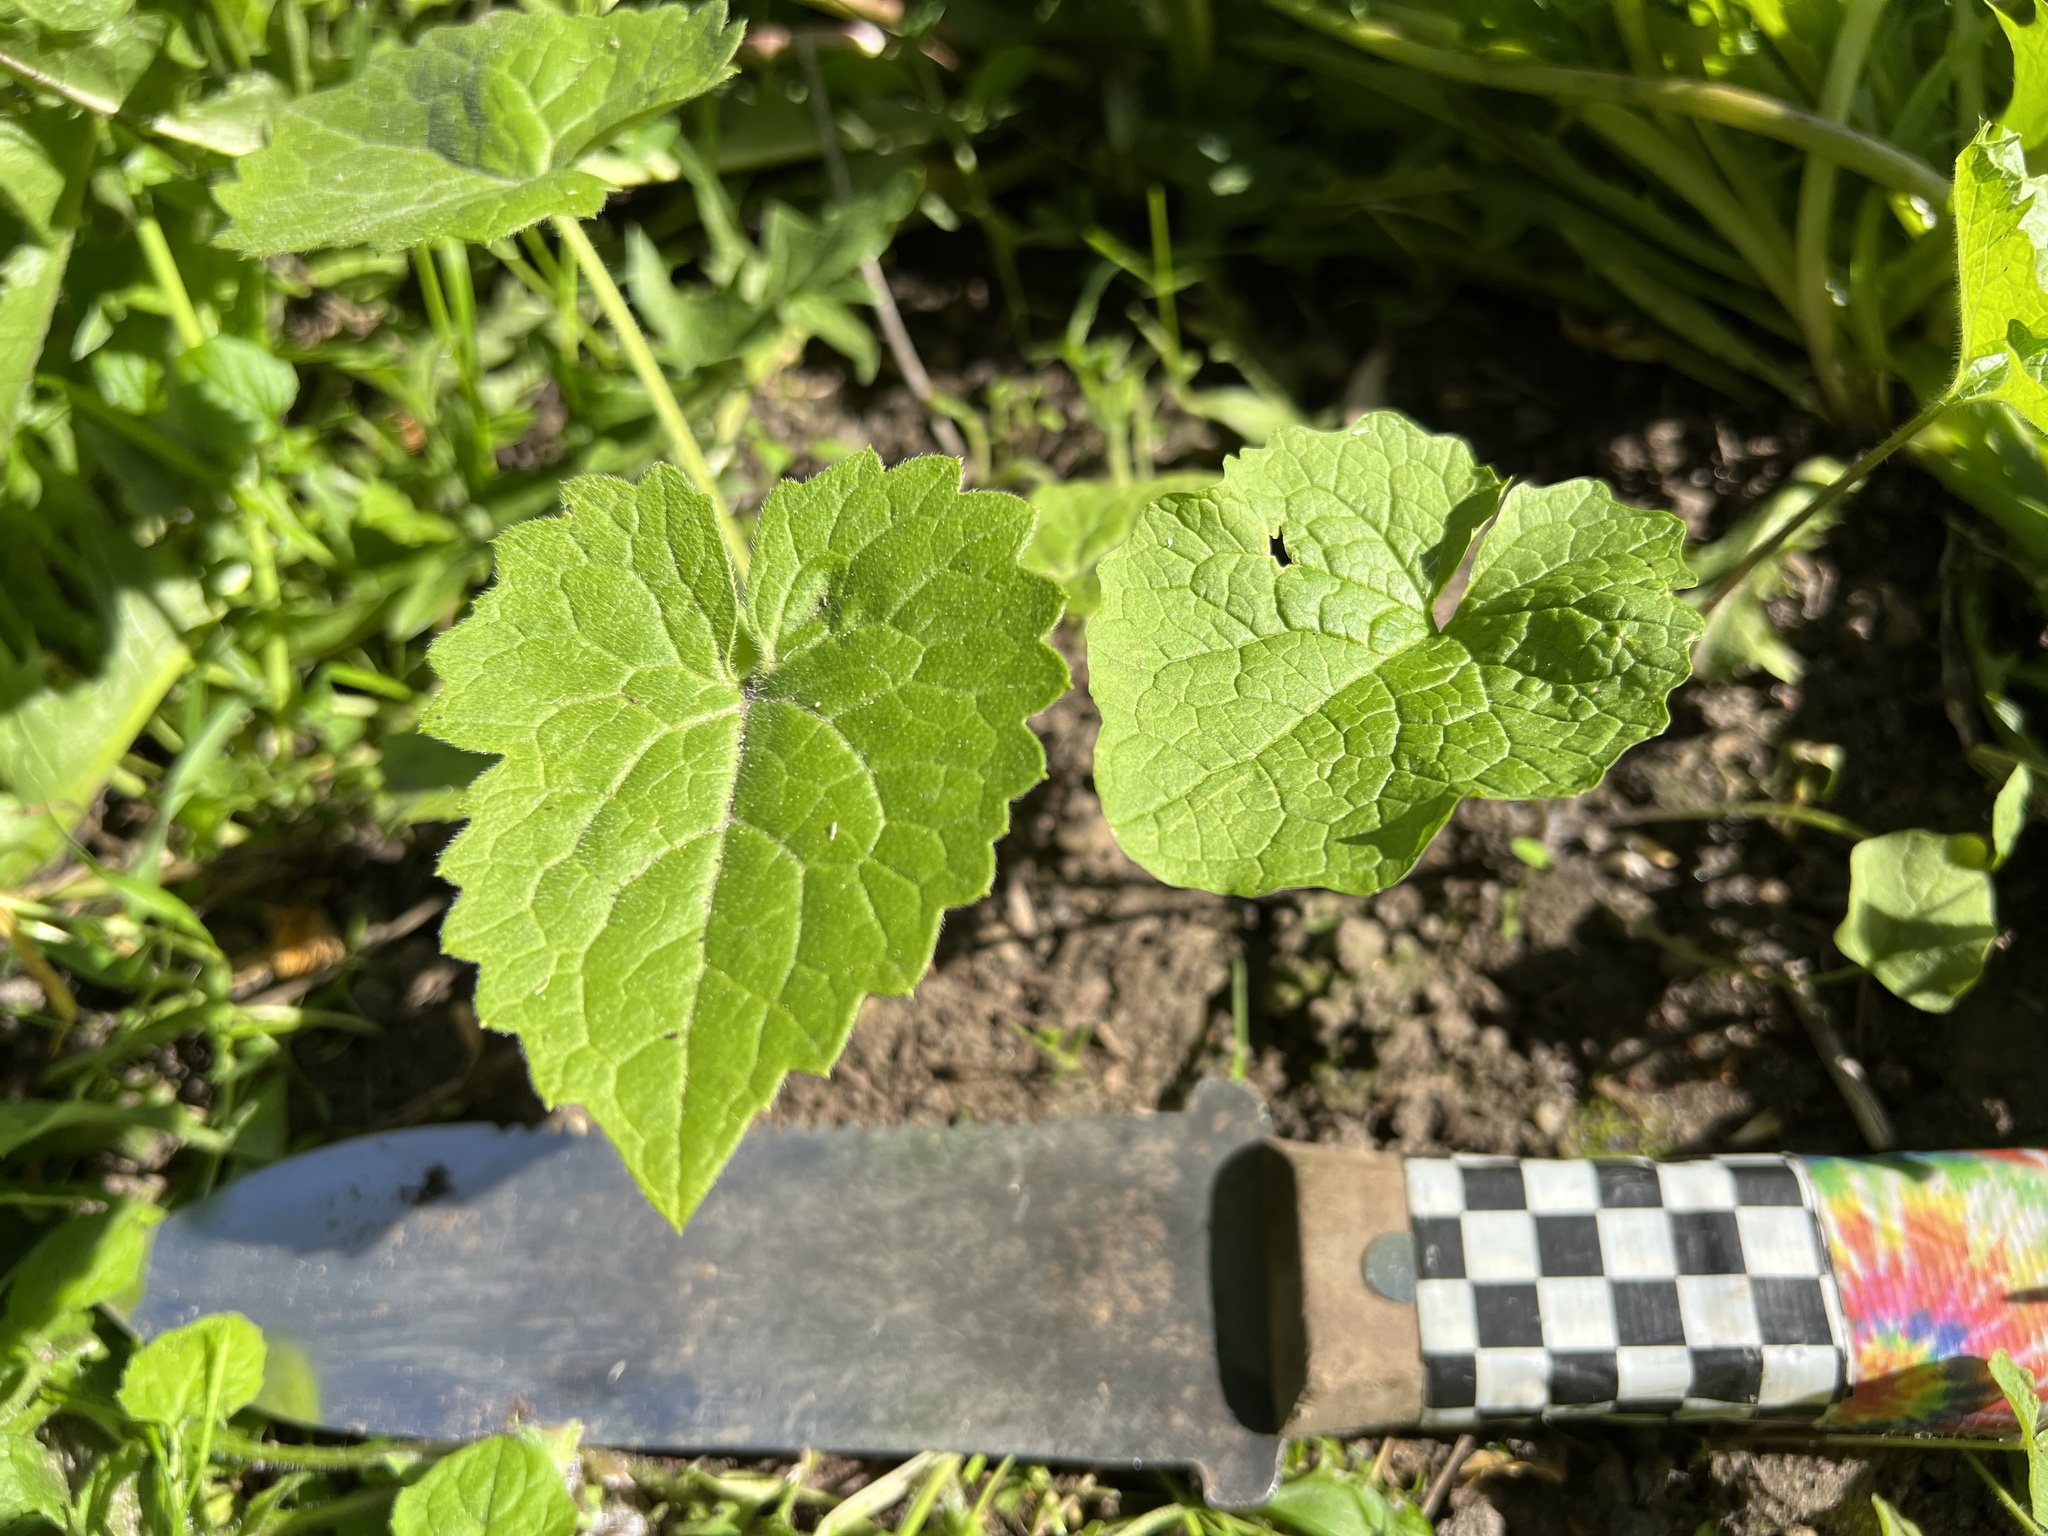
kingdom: Plantae
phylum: Tracheophyta
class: Magnoliopsida
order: Brassicales
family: Brassicaceae
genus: Alliaria
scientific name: Alliaria petiolata
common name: Garlic mustard
